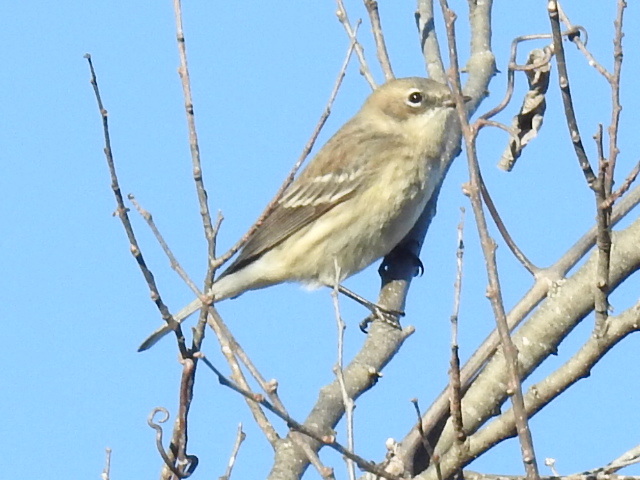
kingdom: Animalia
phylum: Chordata
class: Aves
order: Passeriformes
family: Parulidae
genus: Setophaga
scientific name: Setophaga coronata
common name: Myrtle warbler
